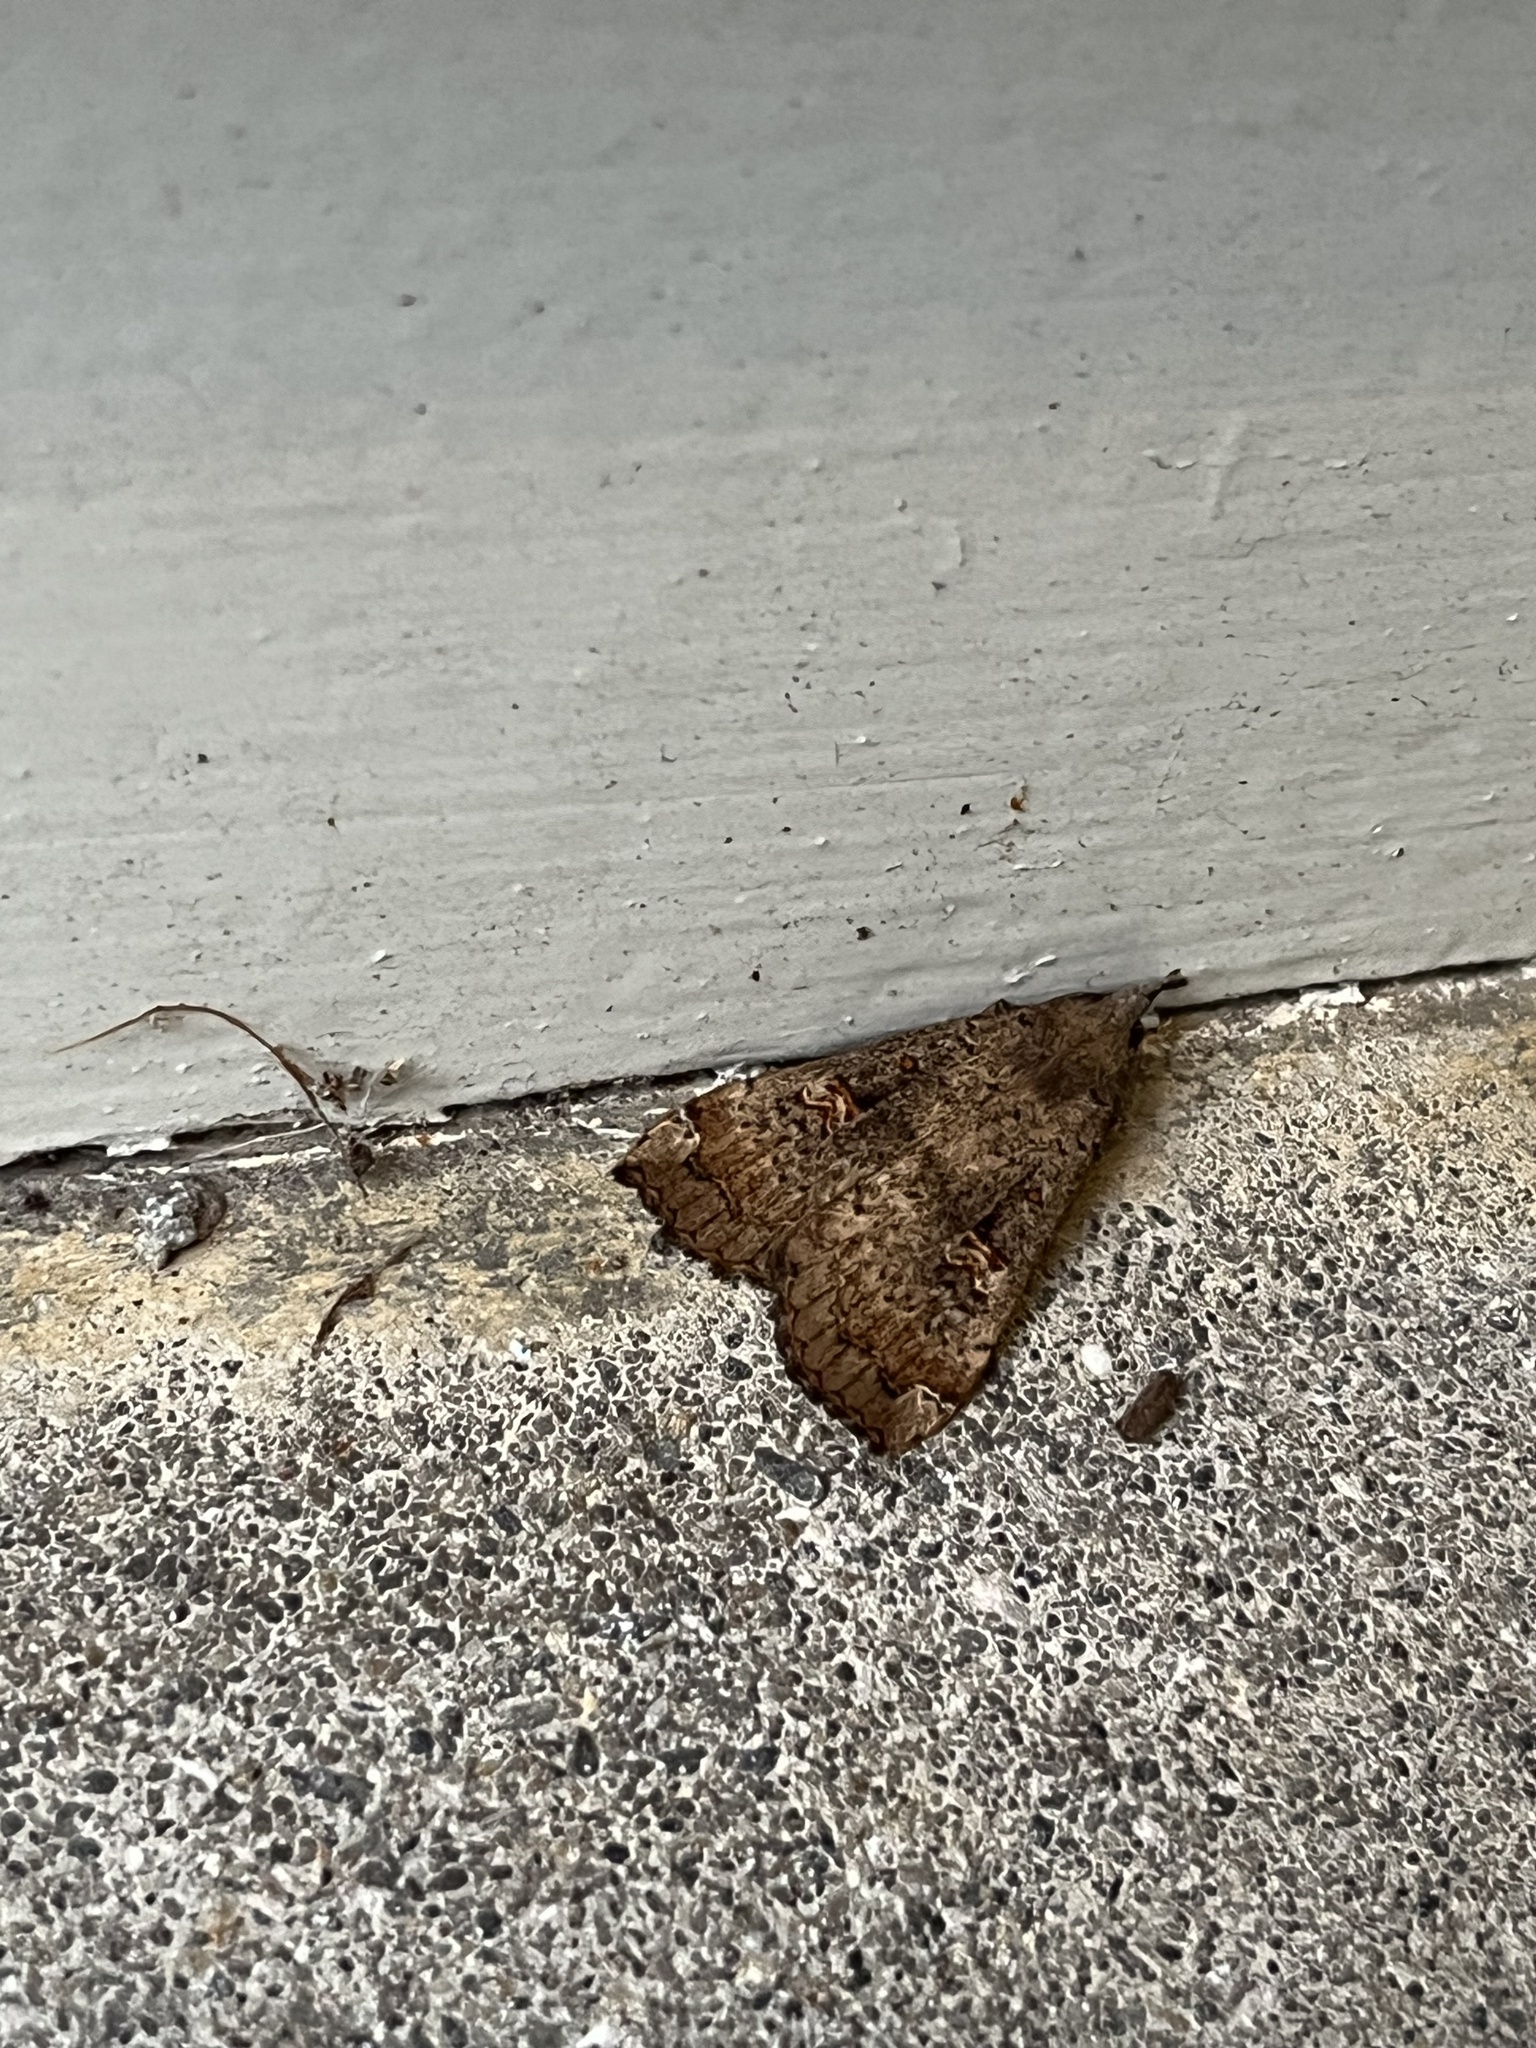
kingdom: Animalia
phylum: Arthropoda
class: Insecta
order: Lepidoptera
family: Erebidae
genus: Rhapsa
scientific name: Rhapsa scotosialis
